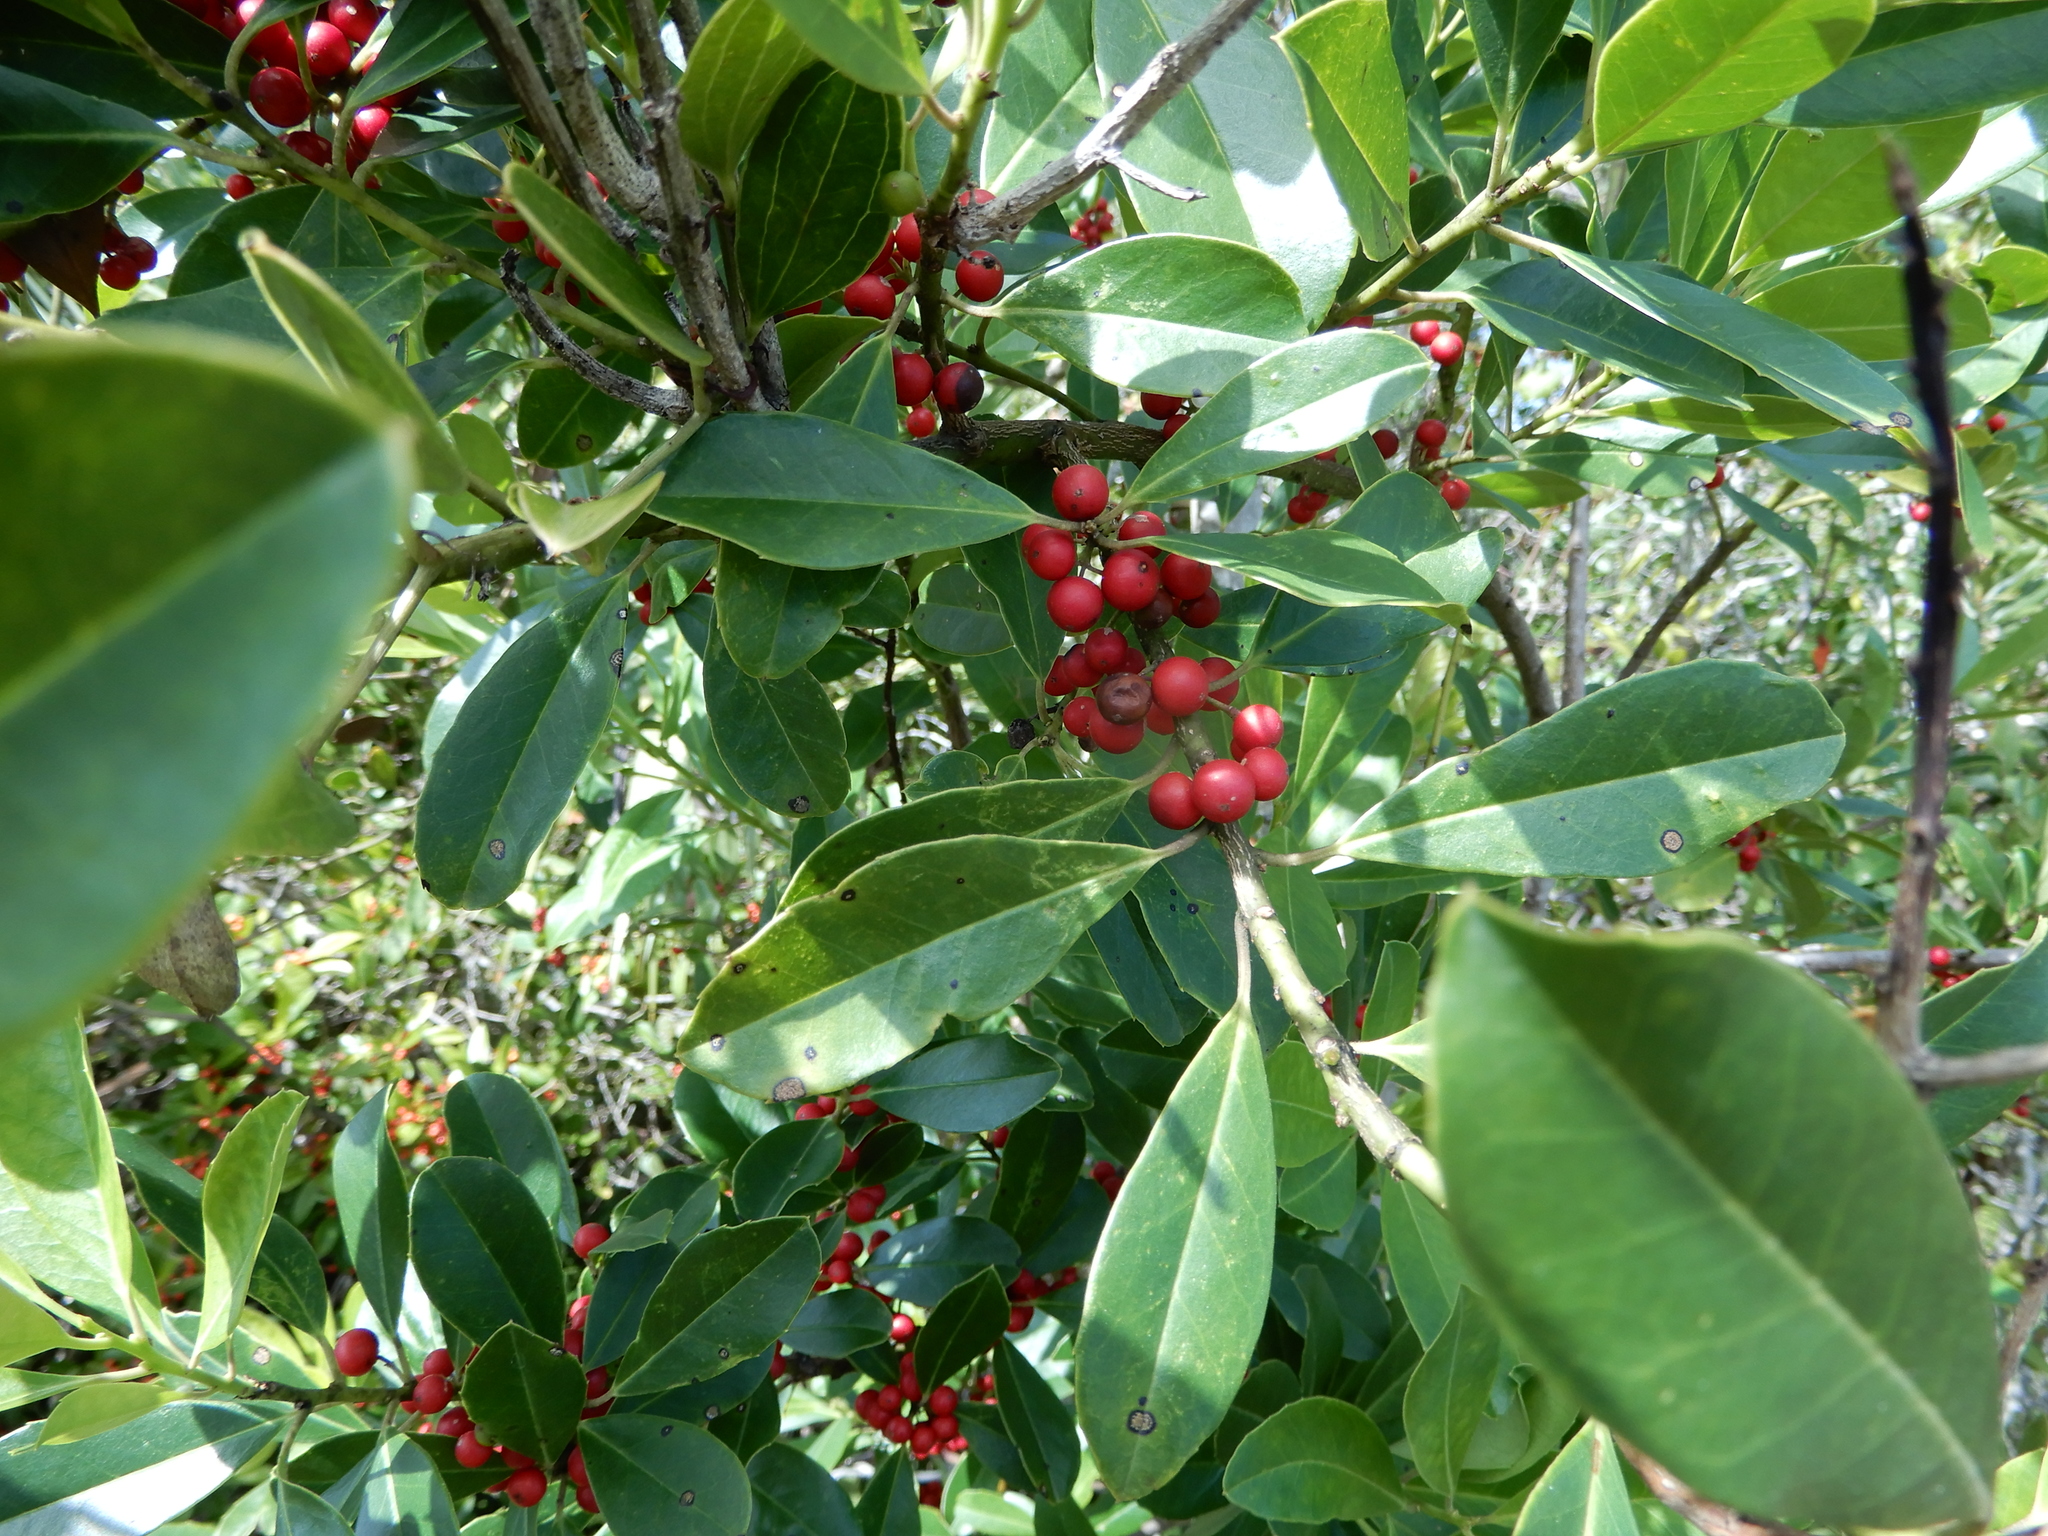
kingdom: Plantae
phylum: Tracheophyta
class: Magnoliopsida
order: Aquifoliales
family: Aquifoliaceae
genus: Ilex
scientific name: Ilex cassine
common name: Dahoon
